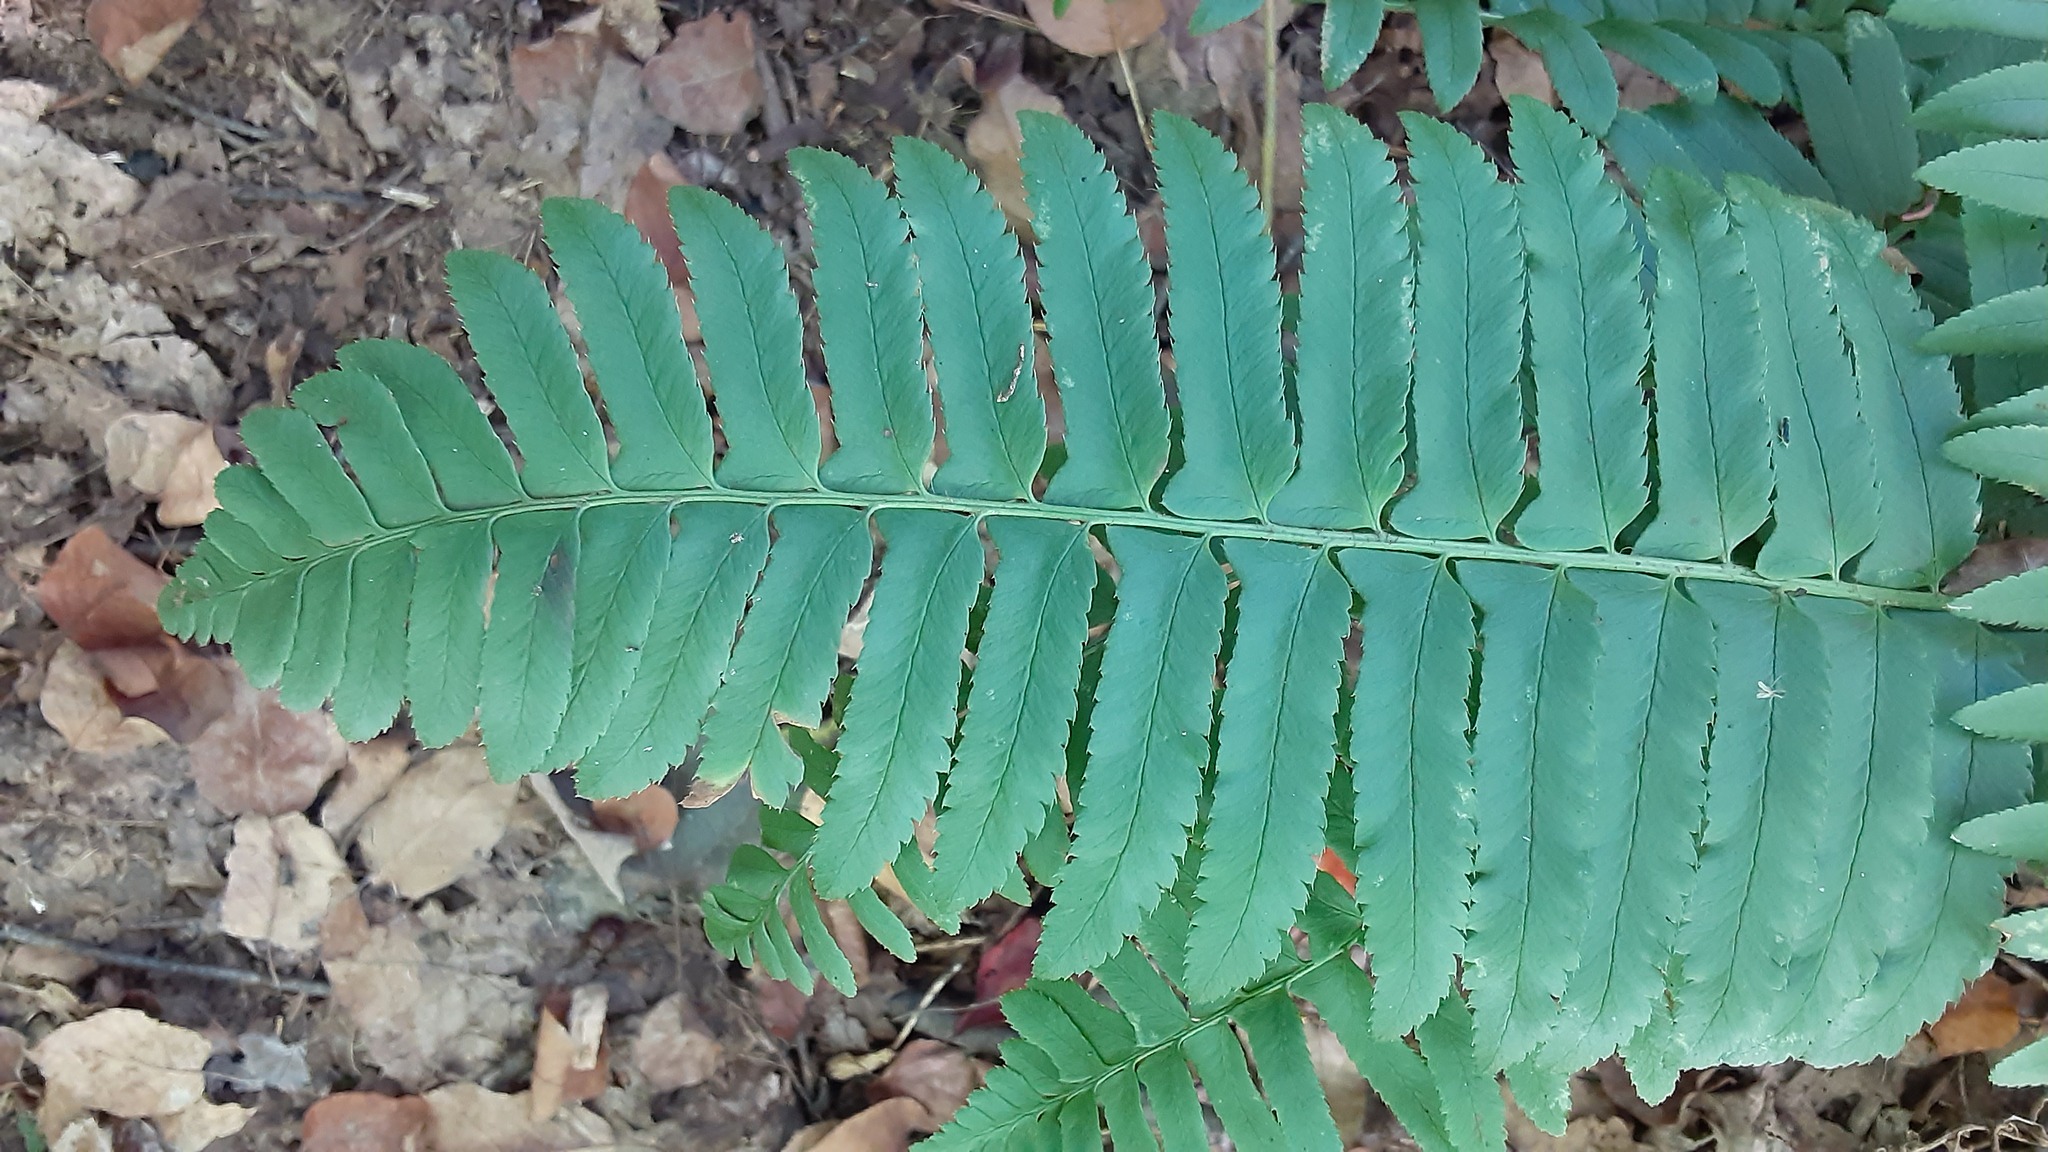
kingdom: Plantae
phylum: Tracheophyta
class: Polypodiopsida
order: Polypodiales
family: Dryopteridaceae
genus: Polystichum
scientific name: Polystichum acrostichoides
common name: Christmas fern
